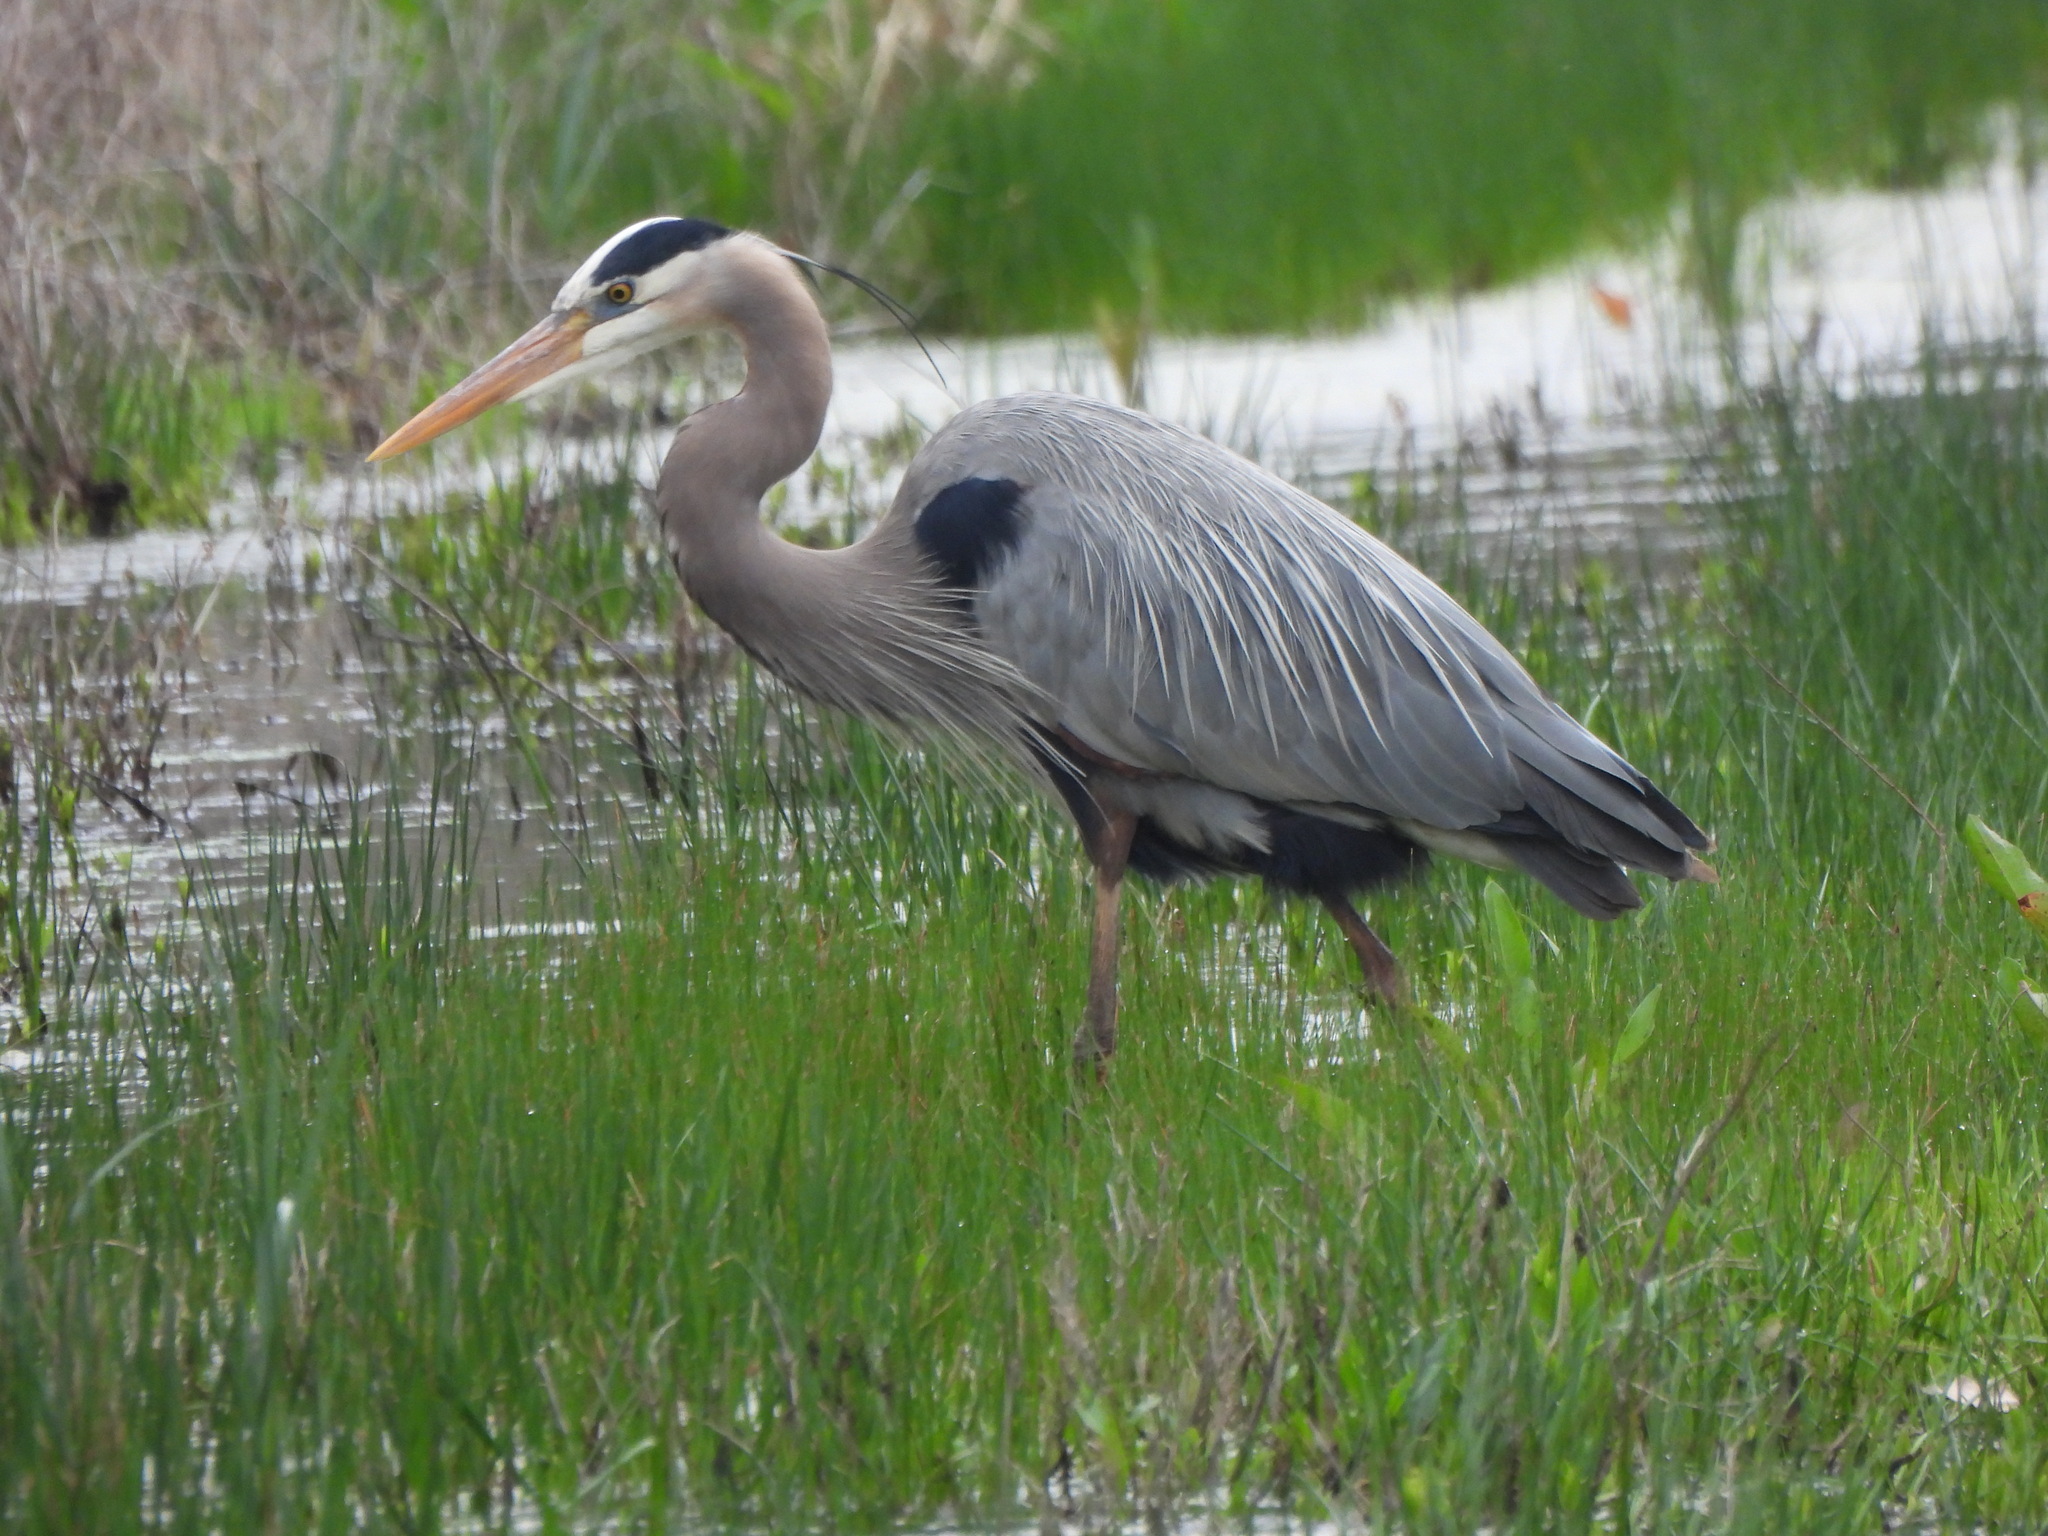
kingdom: Animalia
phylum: Chordata
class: Aves
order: Pelecaniformes
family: Ardeidae
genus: Ardea
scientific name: Ardea herodias
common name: Great blue heron
